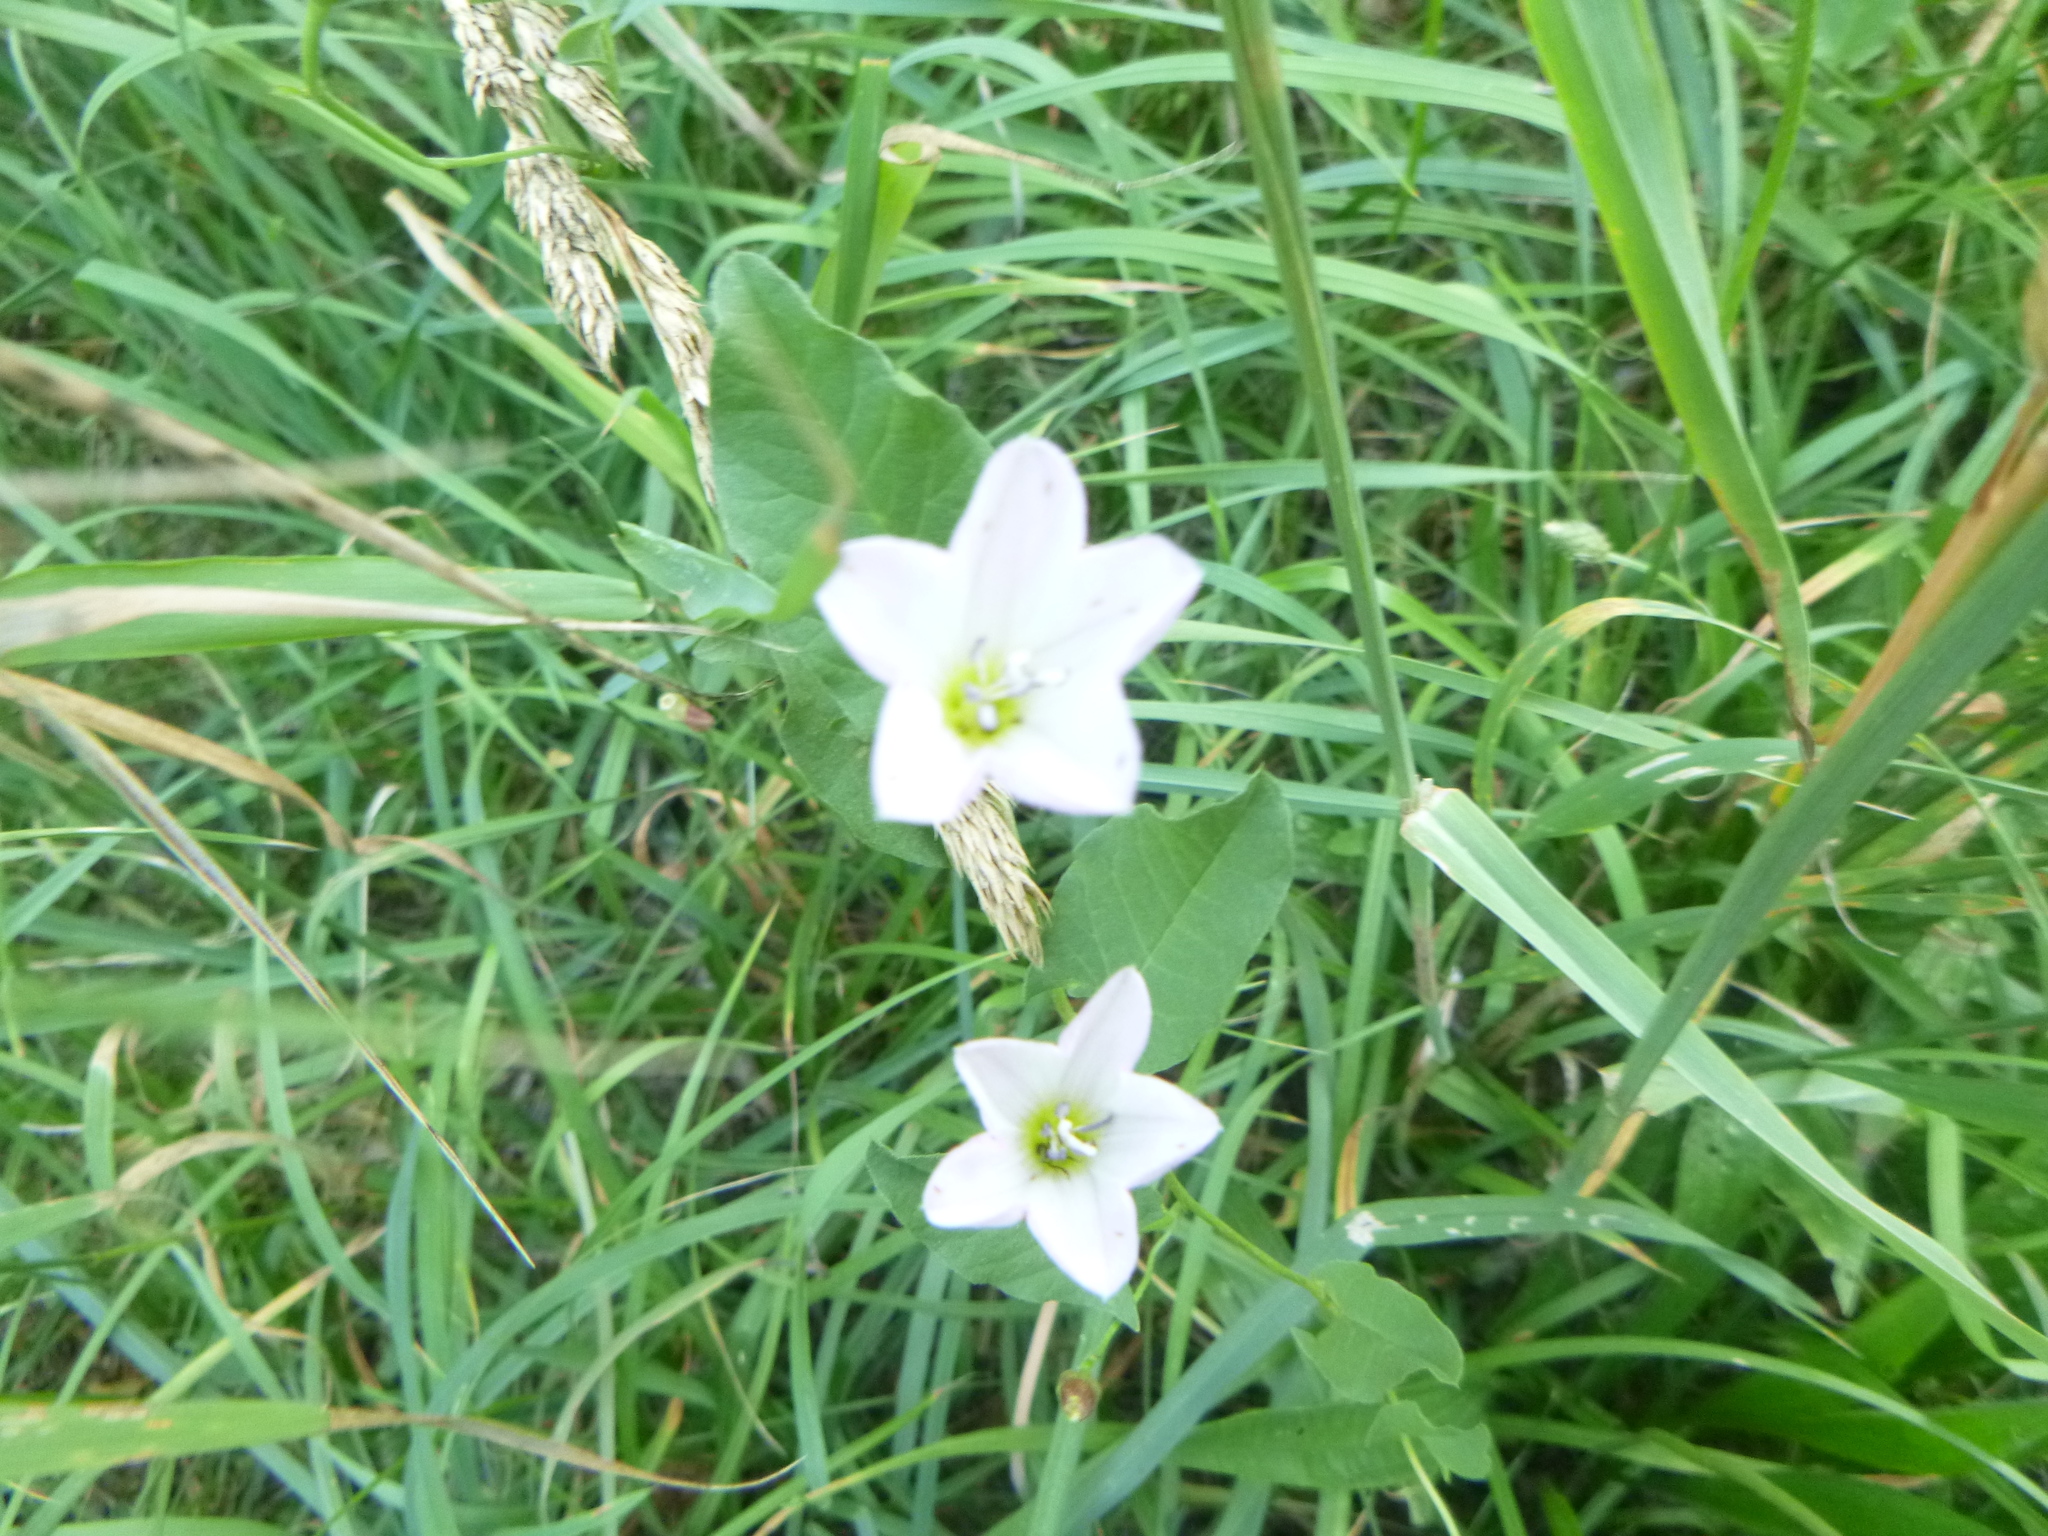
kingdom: Plantae
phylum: Tracheophyta
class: Magnoliopsida
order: Solanales
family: Convolvulaceae
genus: Convolvulus
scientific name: Convolvulus arvensis
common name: Field bindweed
